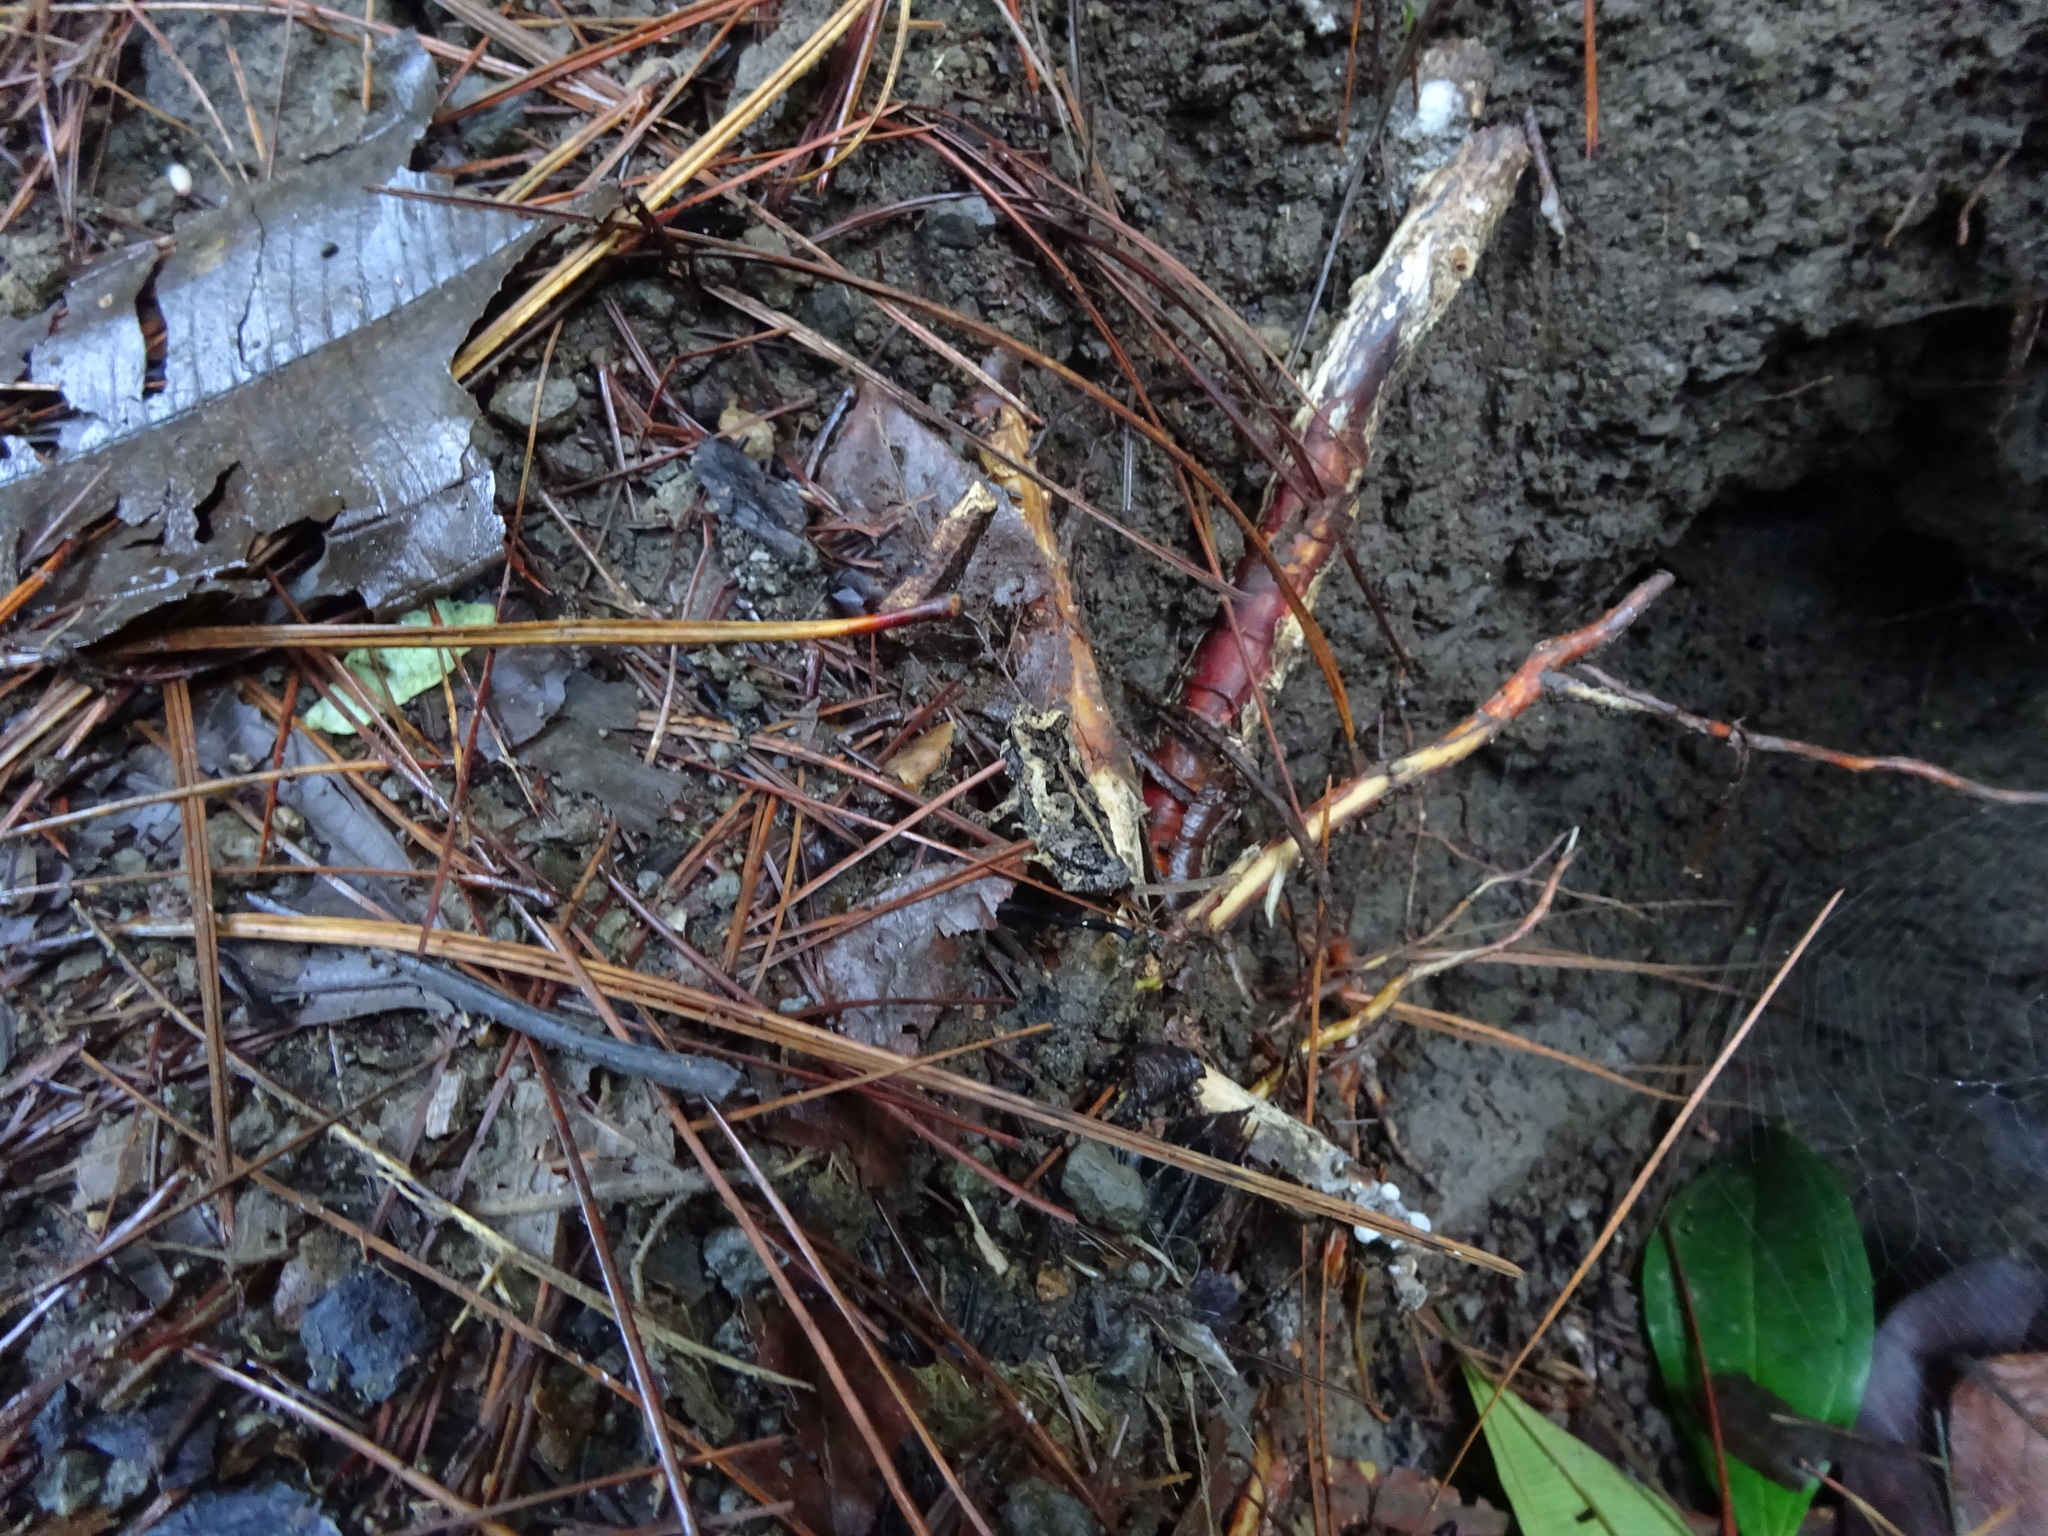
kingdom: Animalia
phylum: Chordata
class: Amphibia
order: Anura
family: Bufonidae
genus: Incilius
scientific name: Incilius melanochlorus
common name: Dark green toad
